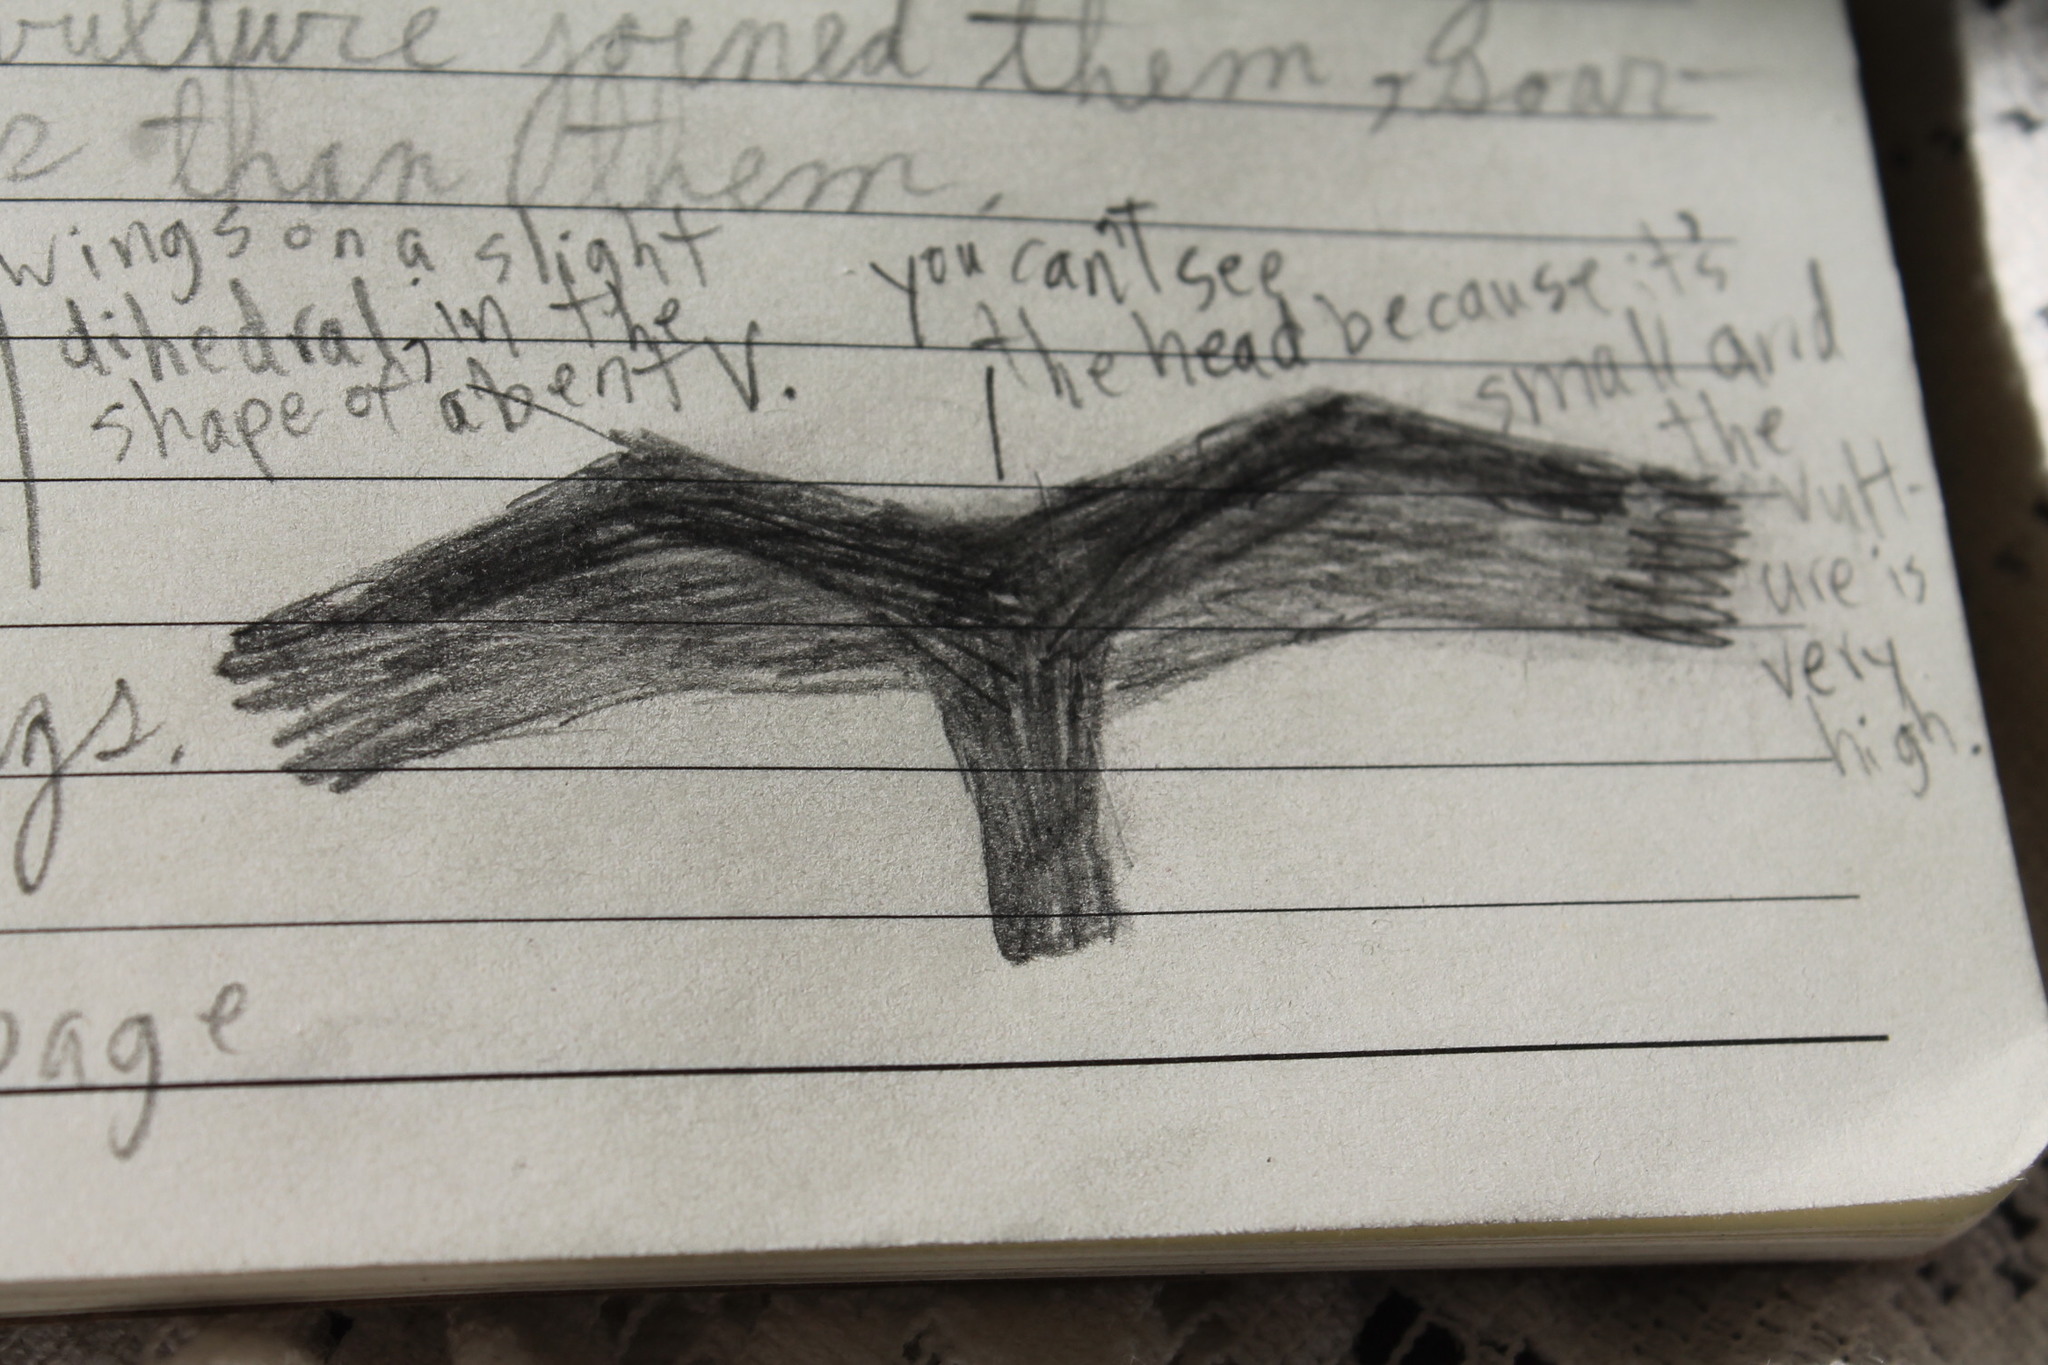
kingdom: Animalia
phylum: Chordata
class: Aves
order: Accipitriformes
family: Cathartidae
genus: Cathartes
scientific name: Cathartes aura
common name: Turkey vulture
